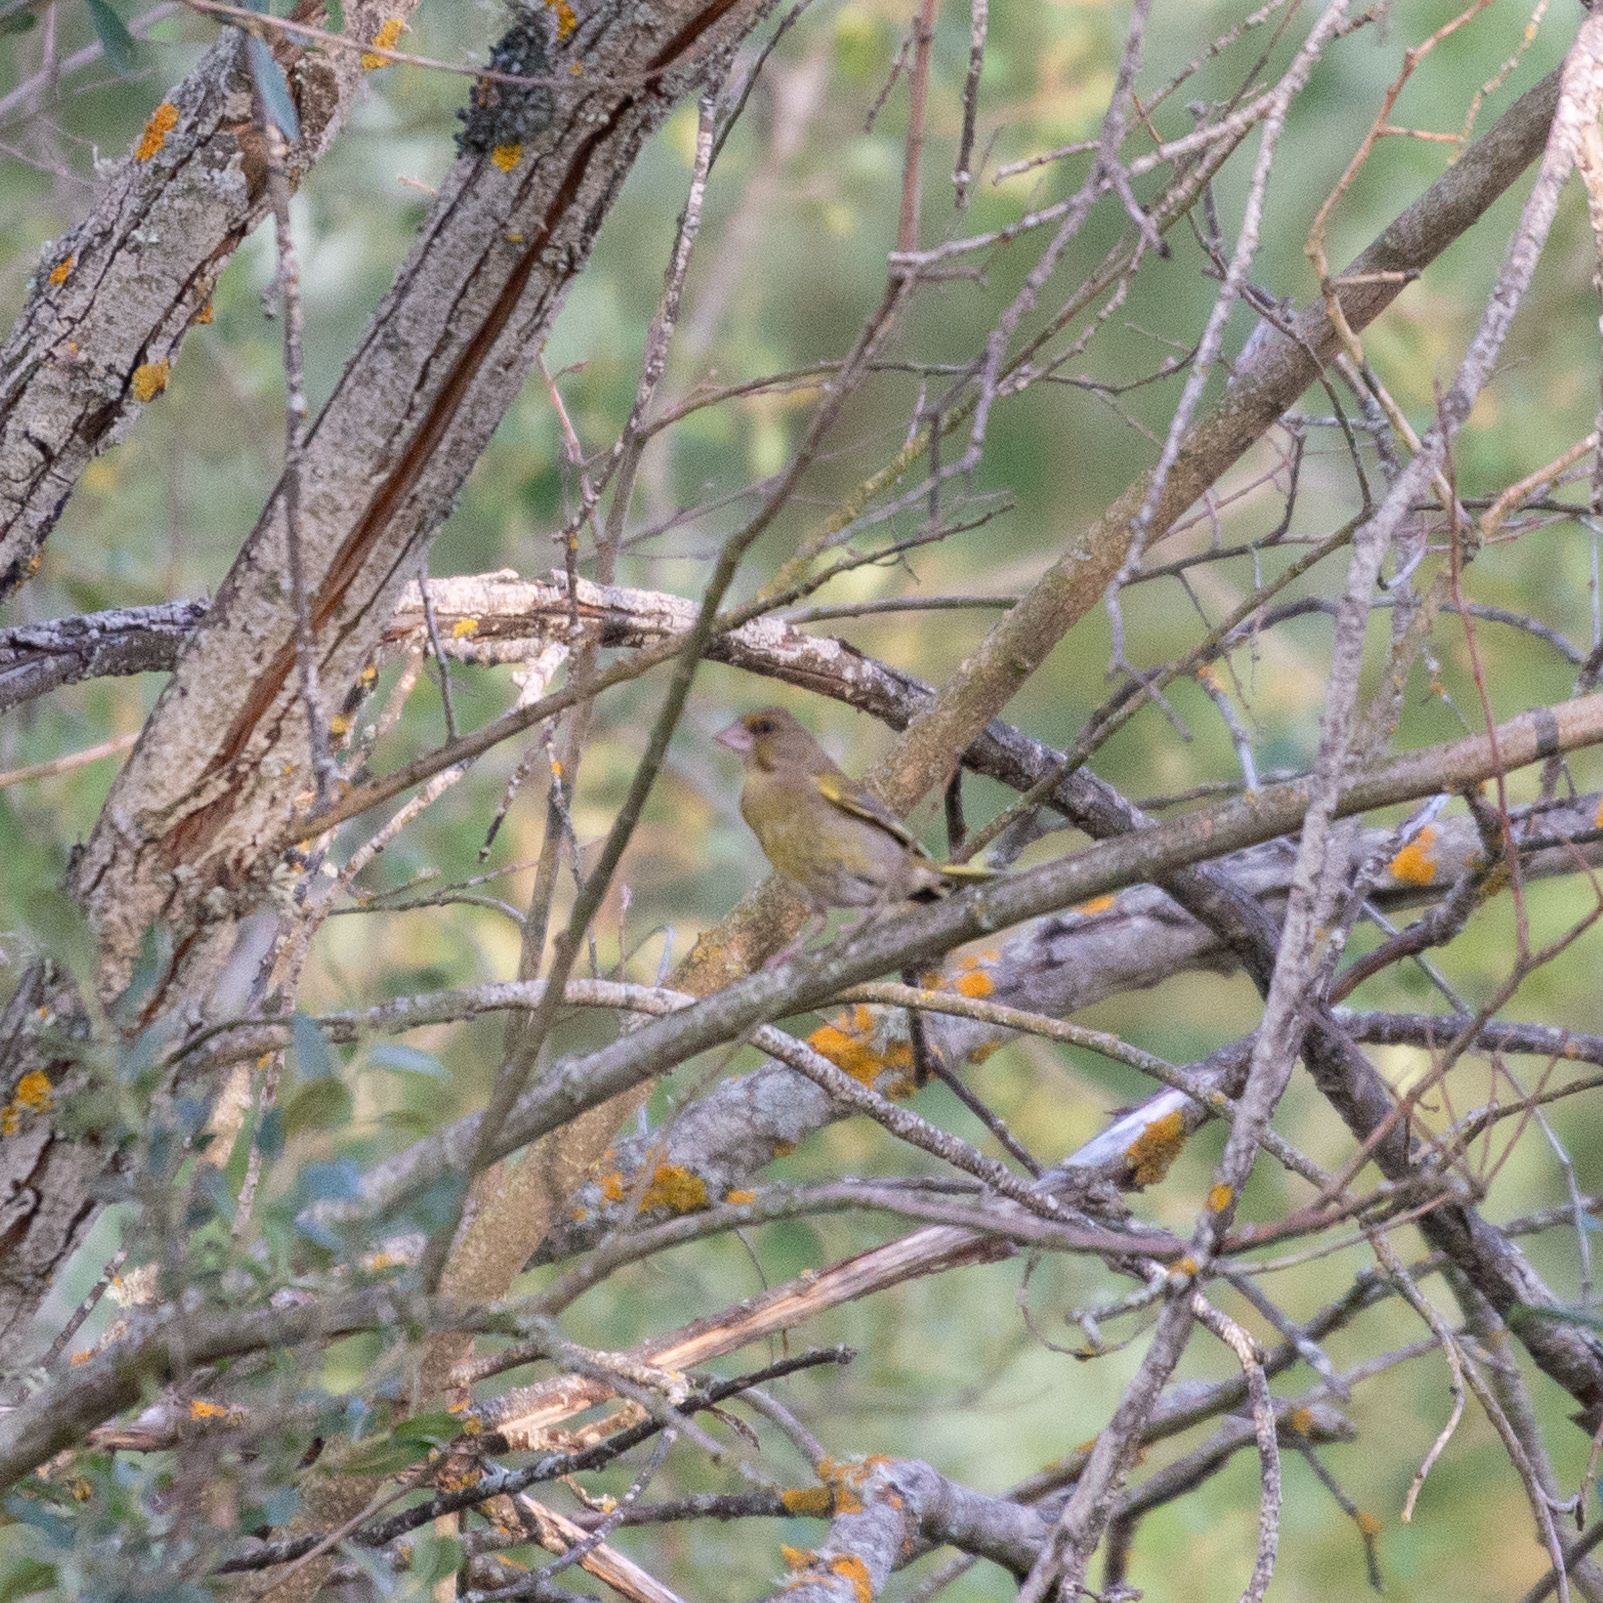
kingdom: Plantae
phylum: Tracheophyta
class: Liliopsida
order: Poales
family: Poaceae
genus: Chloris
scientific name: Chloris chloris
